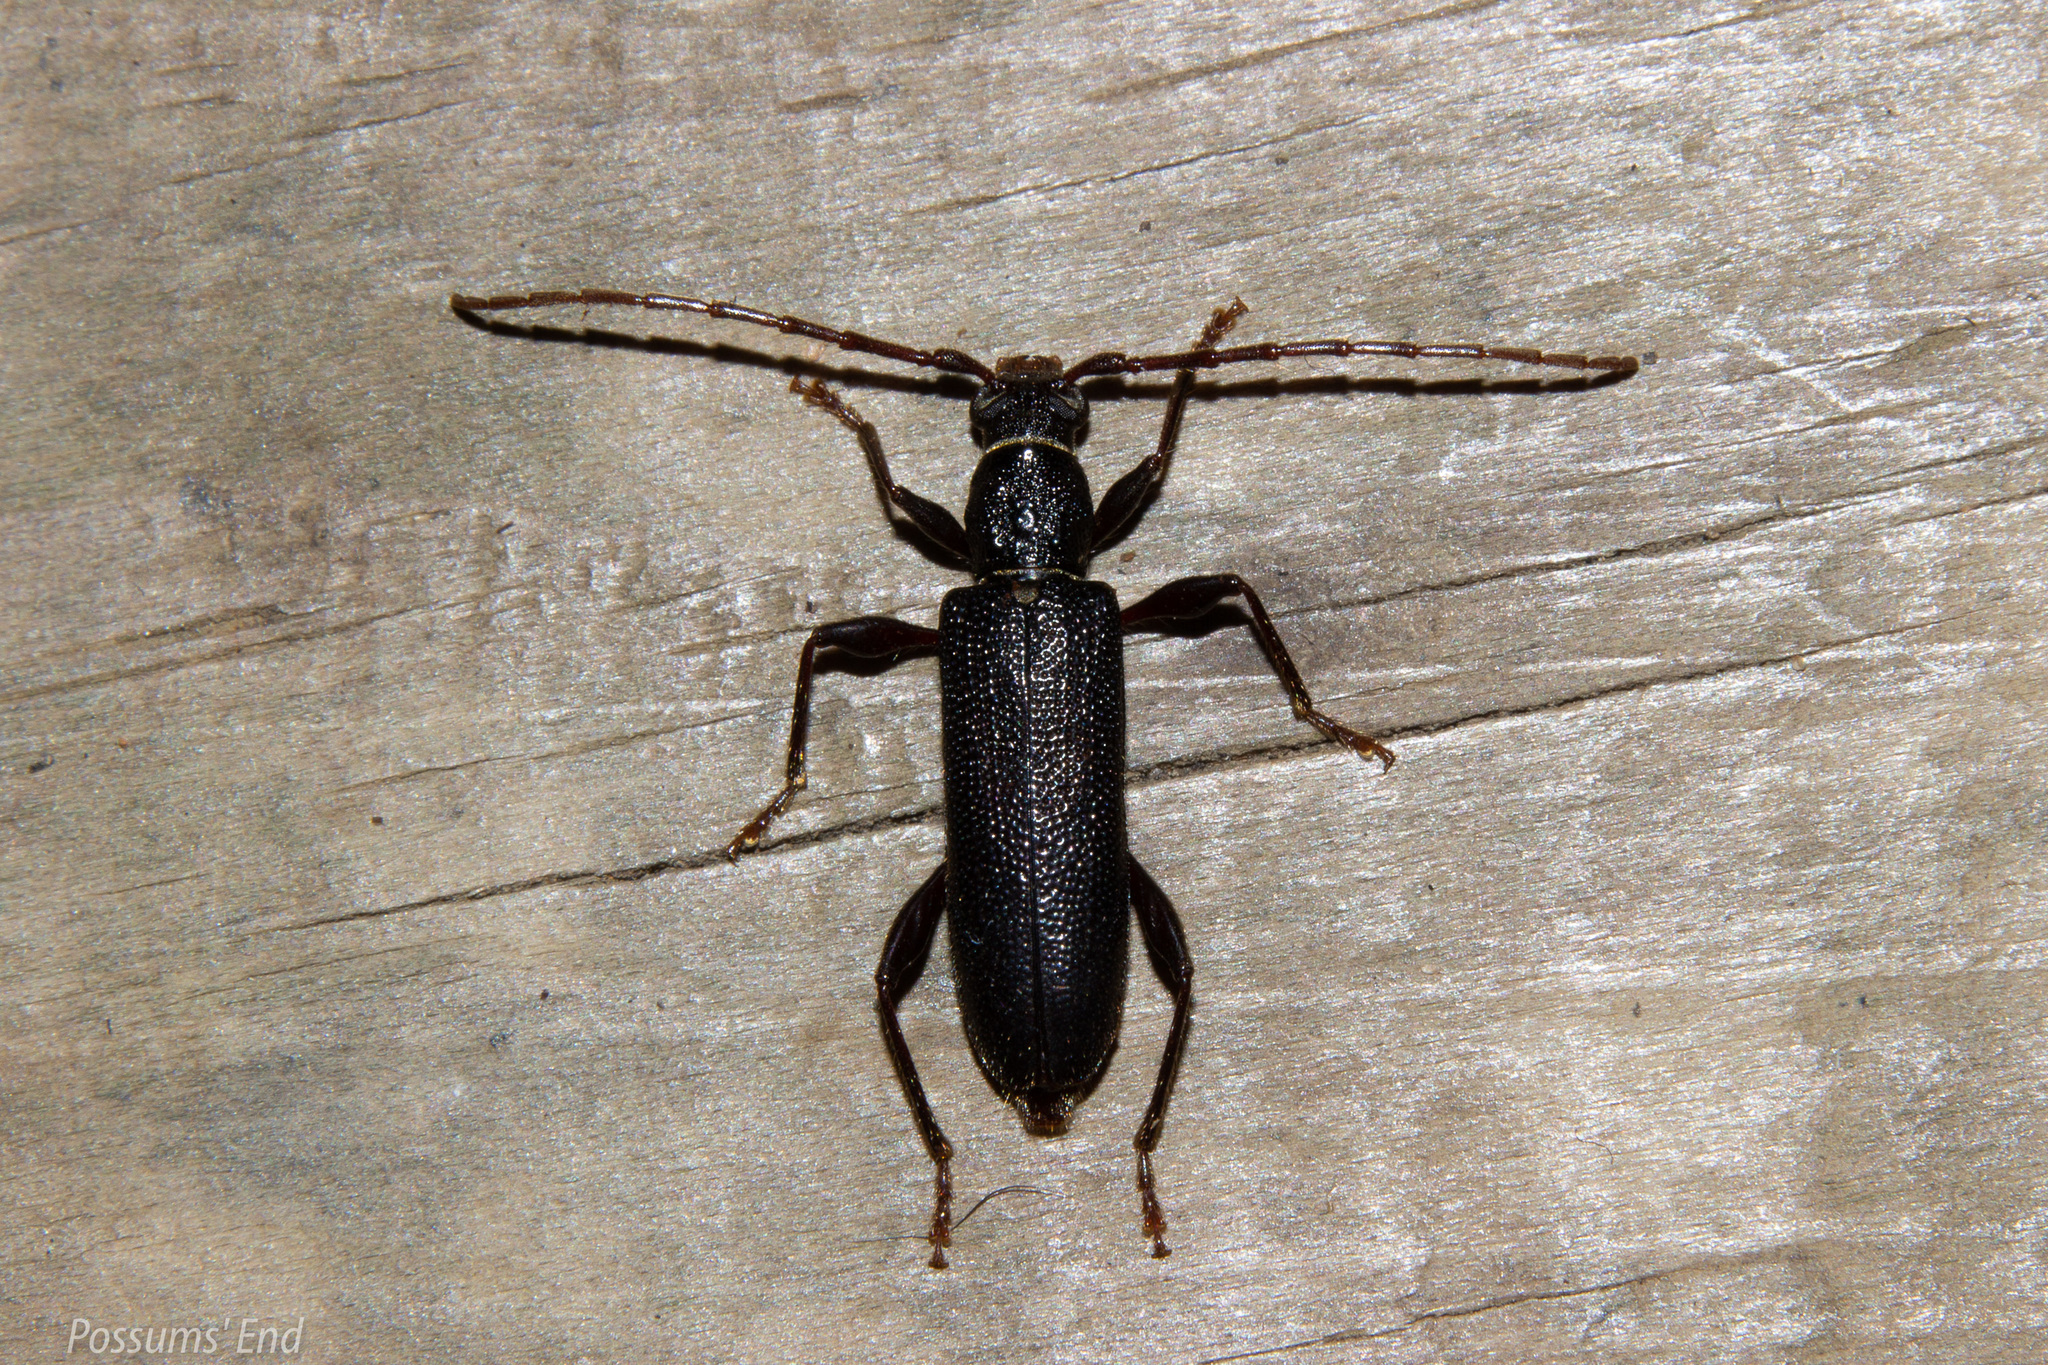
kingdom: Animalia
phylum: Arthropoda
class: Insecta
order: Coleoptera
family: Cerambycidae
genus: Callidiopis
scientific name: Callidiopis scutellaris
